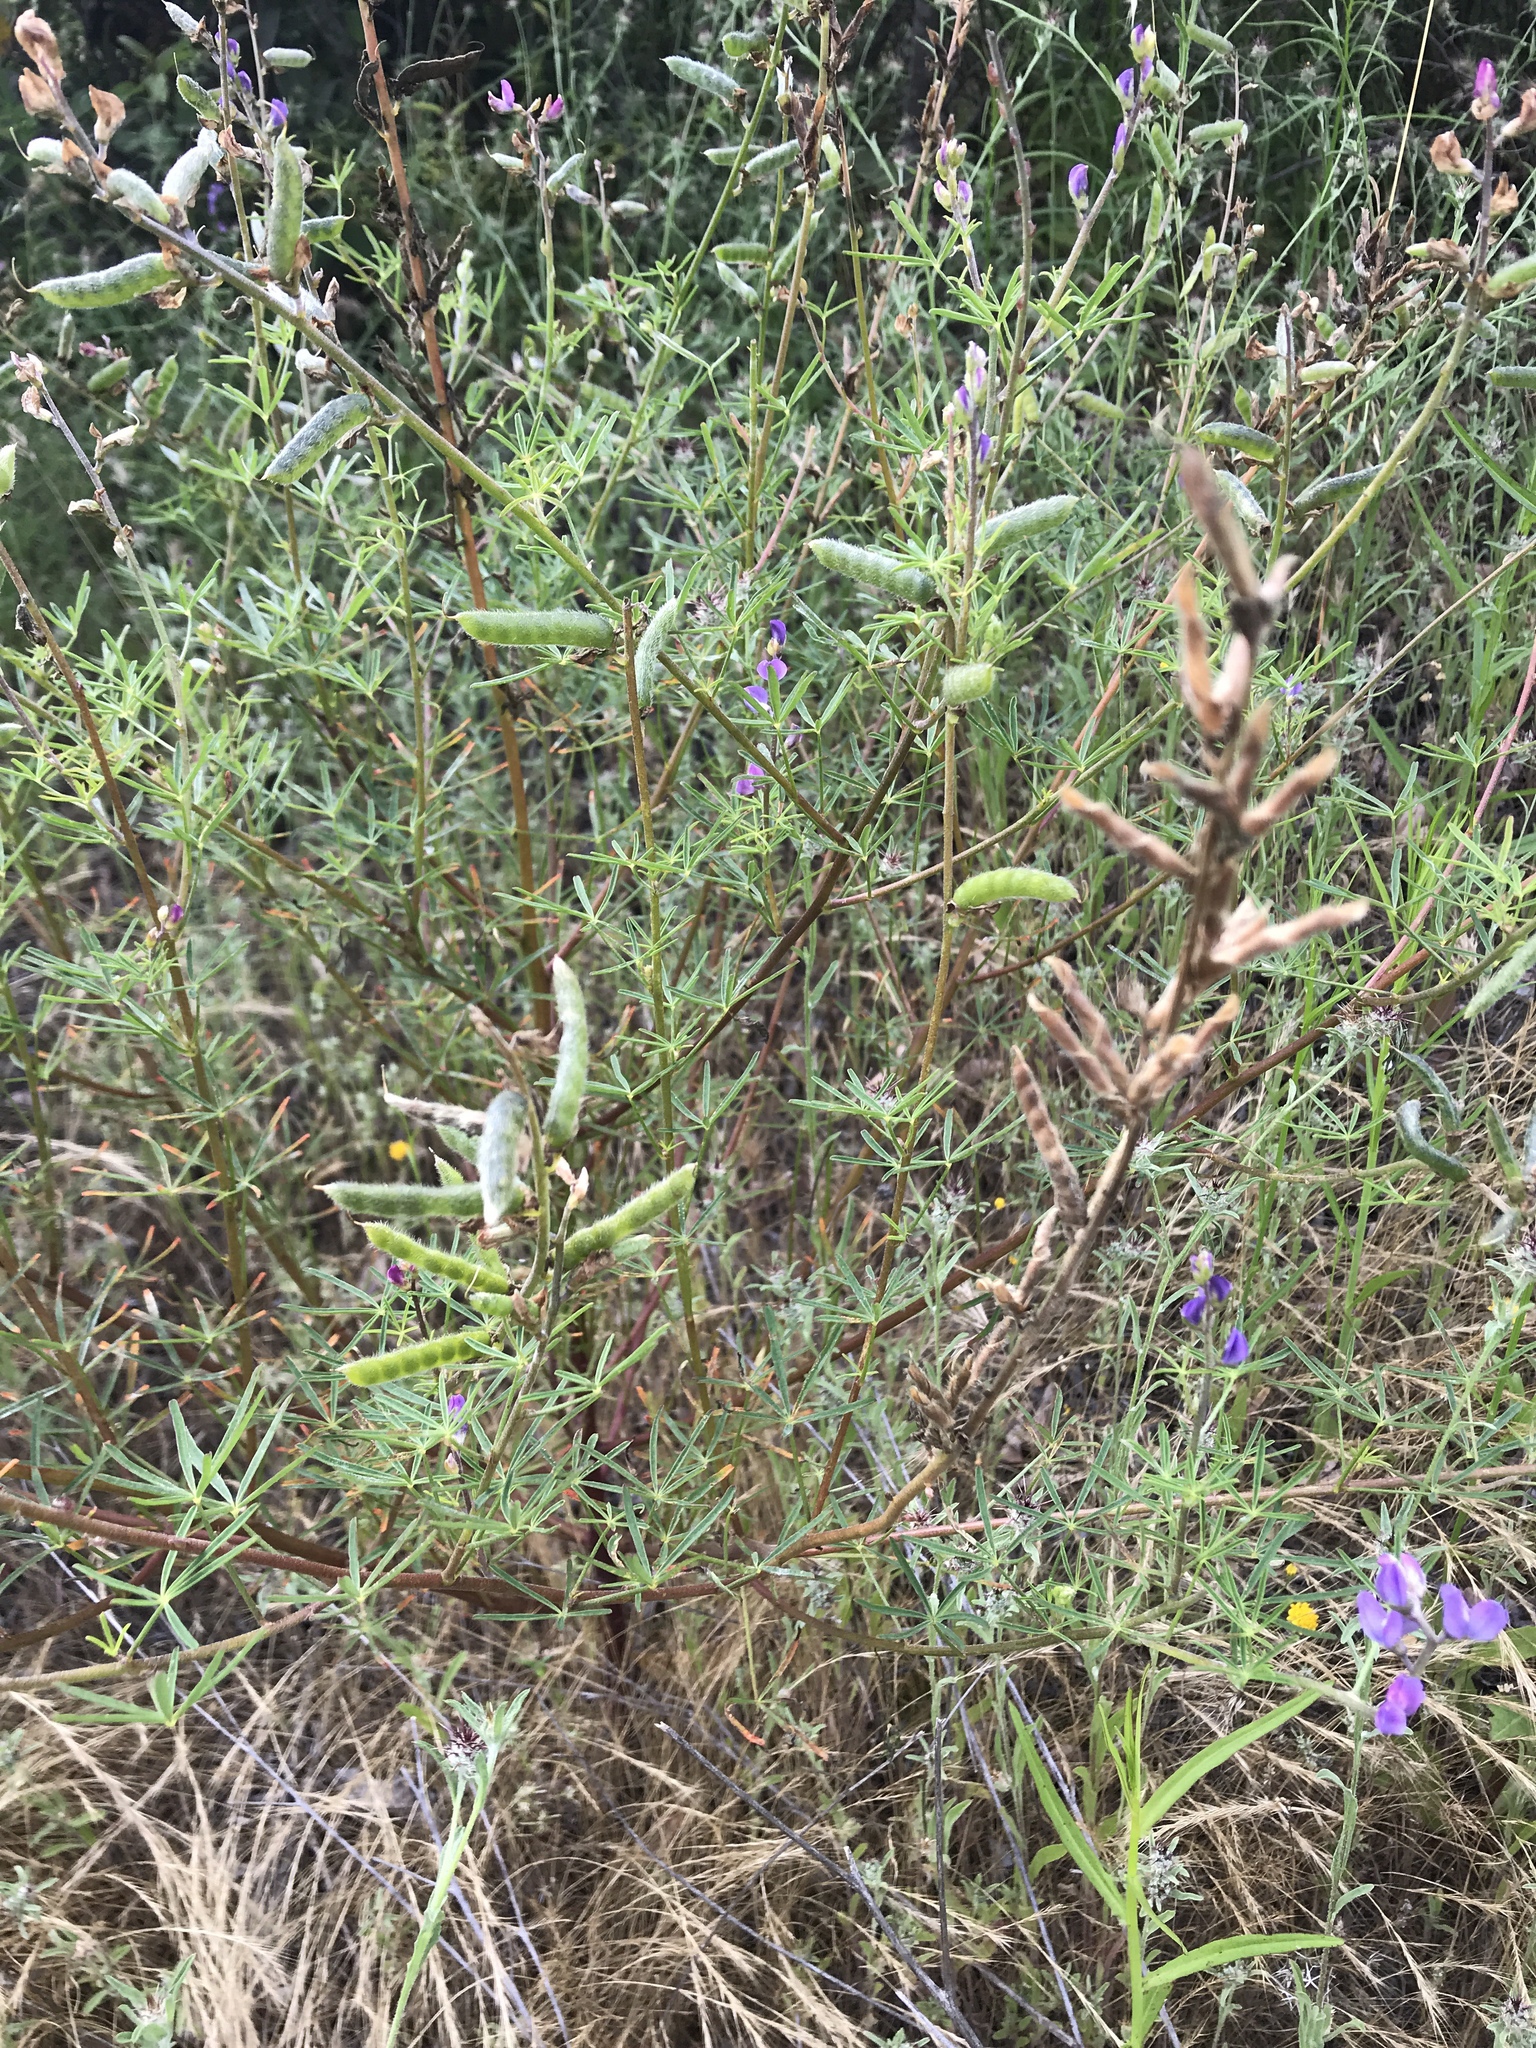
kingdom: Plantae
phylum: Tracheophyta
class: Magnoliopsida
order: Fabales
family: Fabaceae
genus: Lupinus
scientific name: Lupinus truncatus
